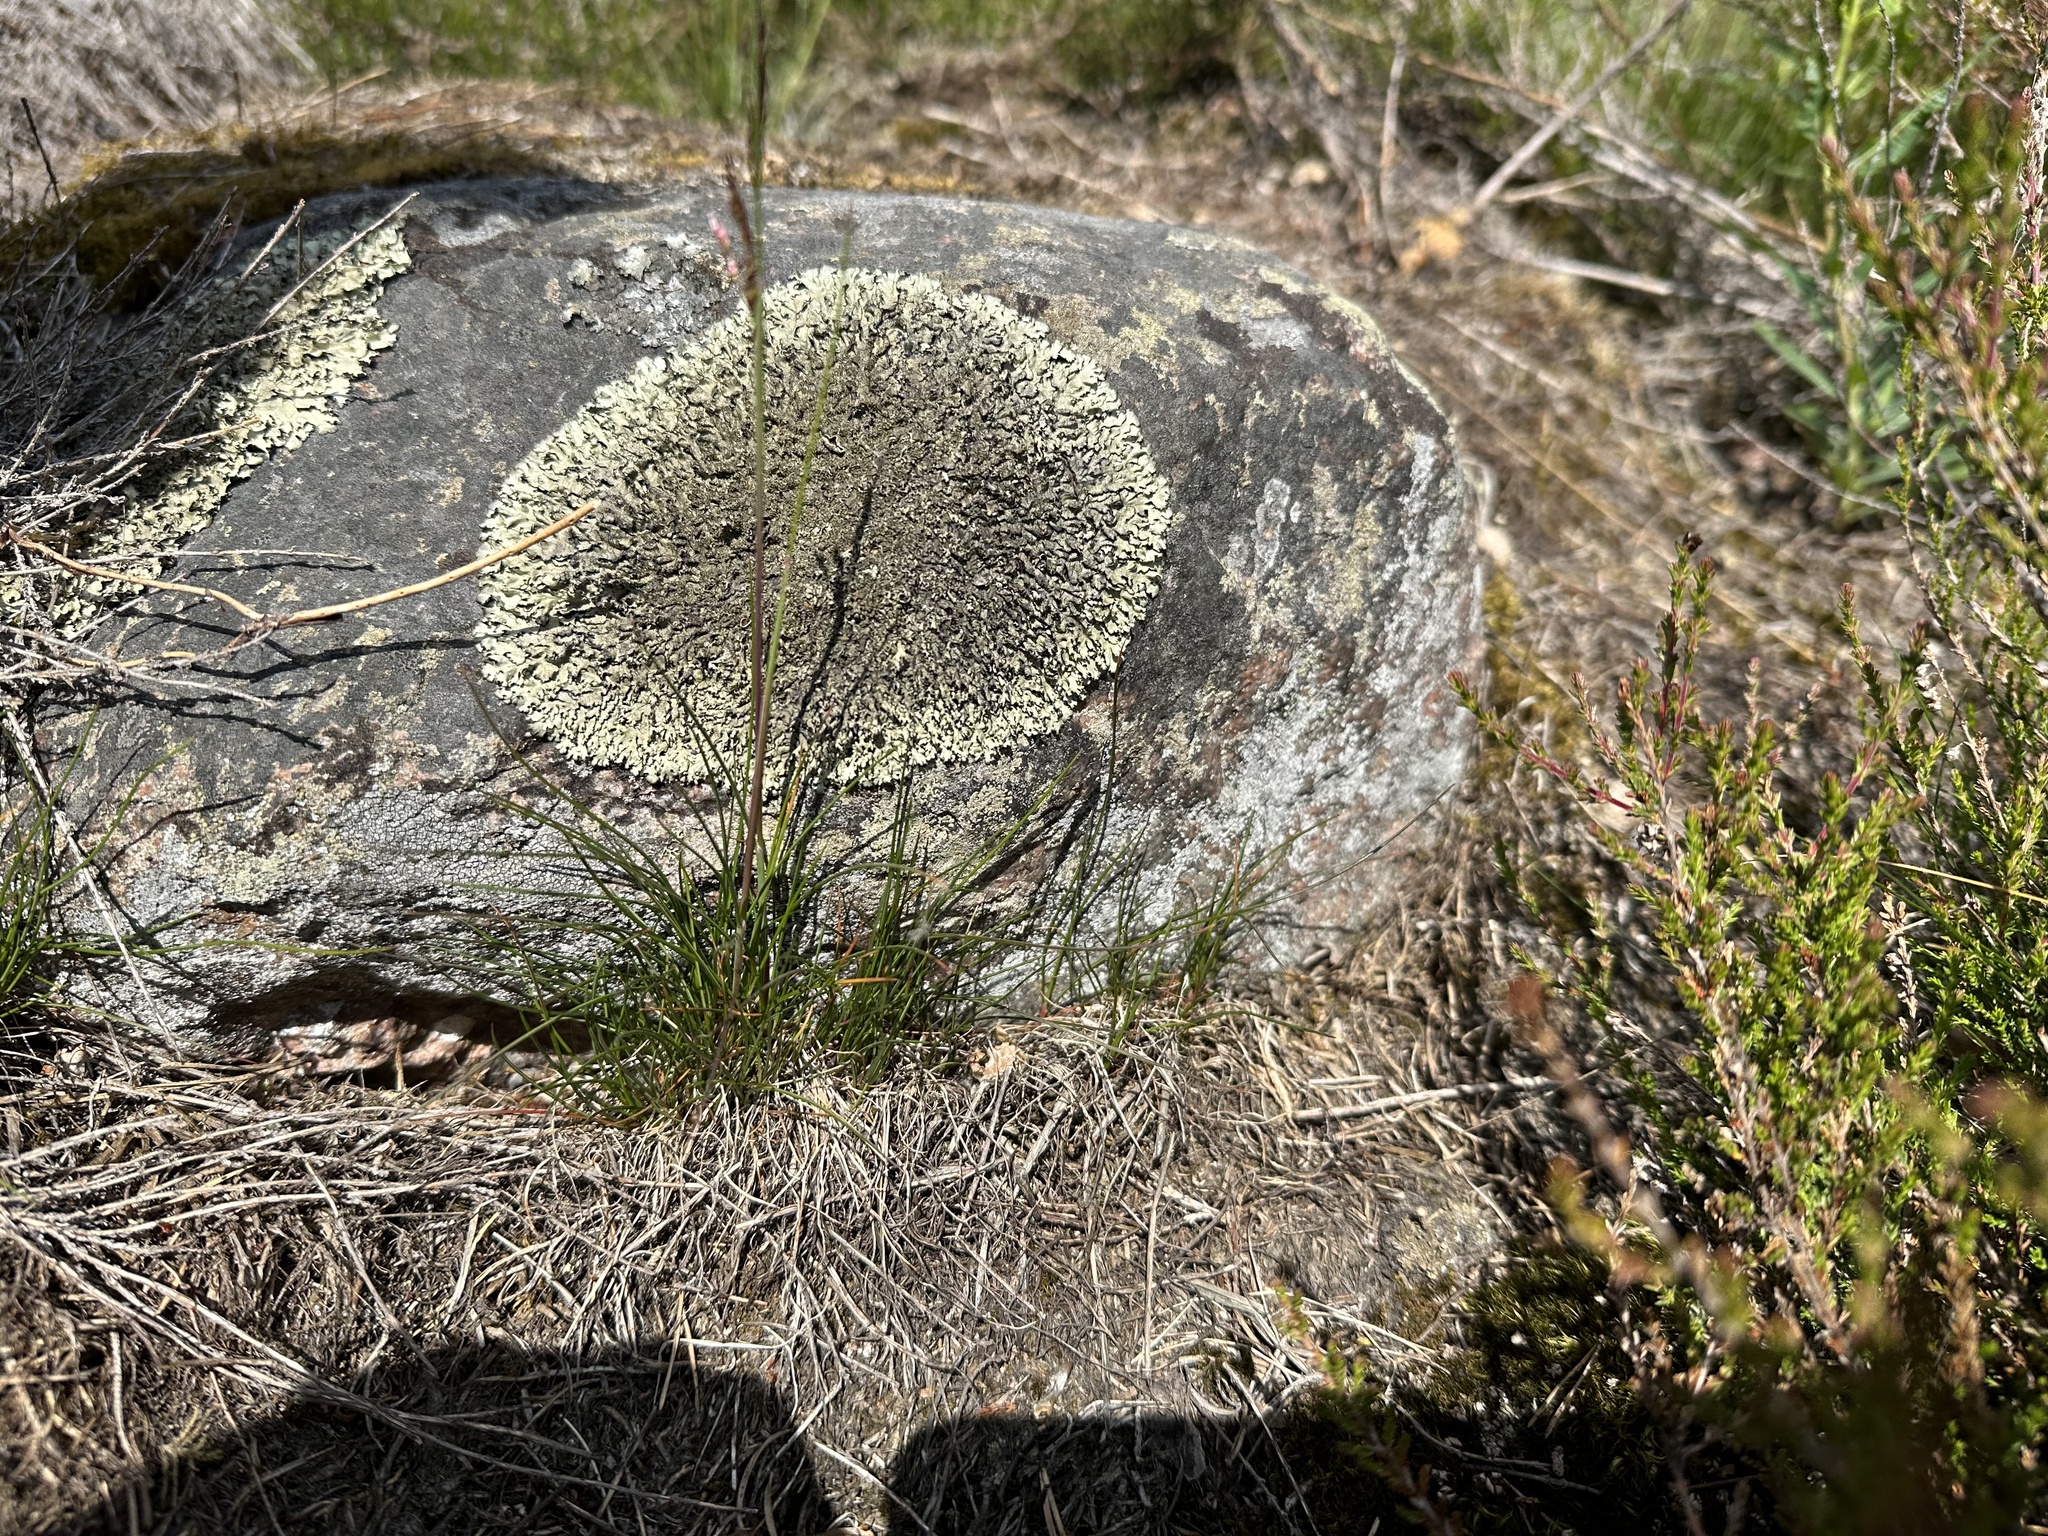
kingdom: Fungi
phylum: Ascomycota
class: Lecanoromycetes
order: Lecanorales
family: Parmeliaceae
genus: Xanthoparmelia
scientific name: Xanthoparmelia conspersa
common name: Peppered rock shield
